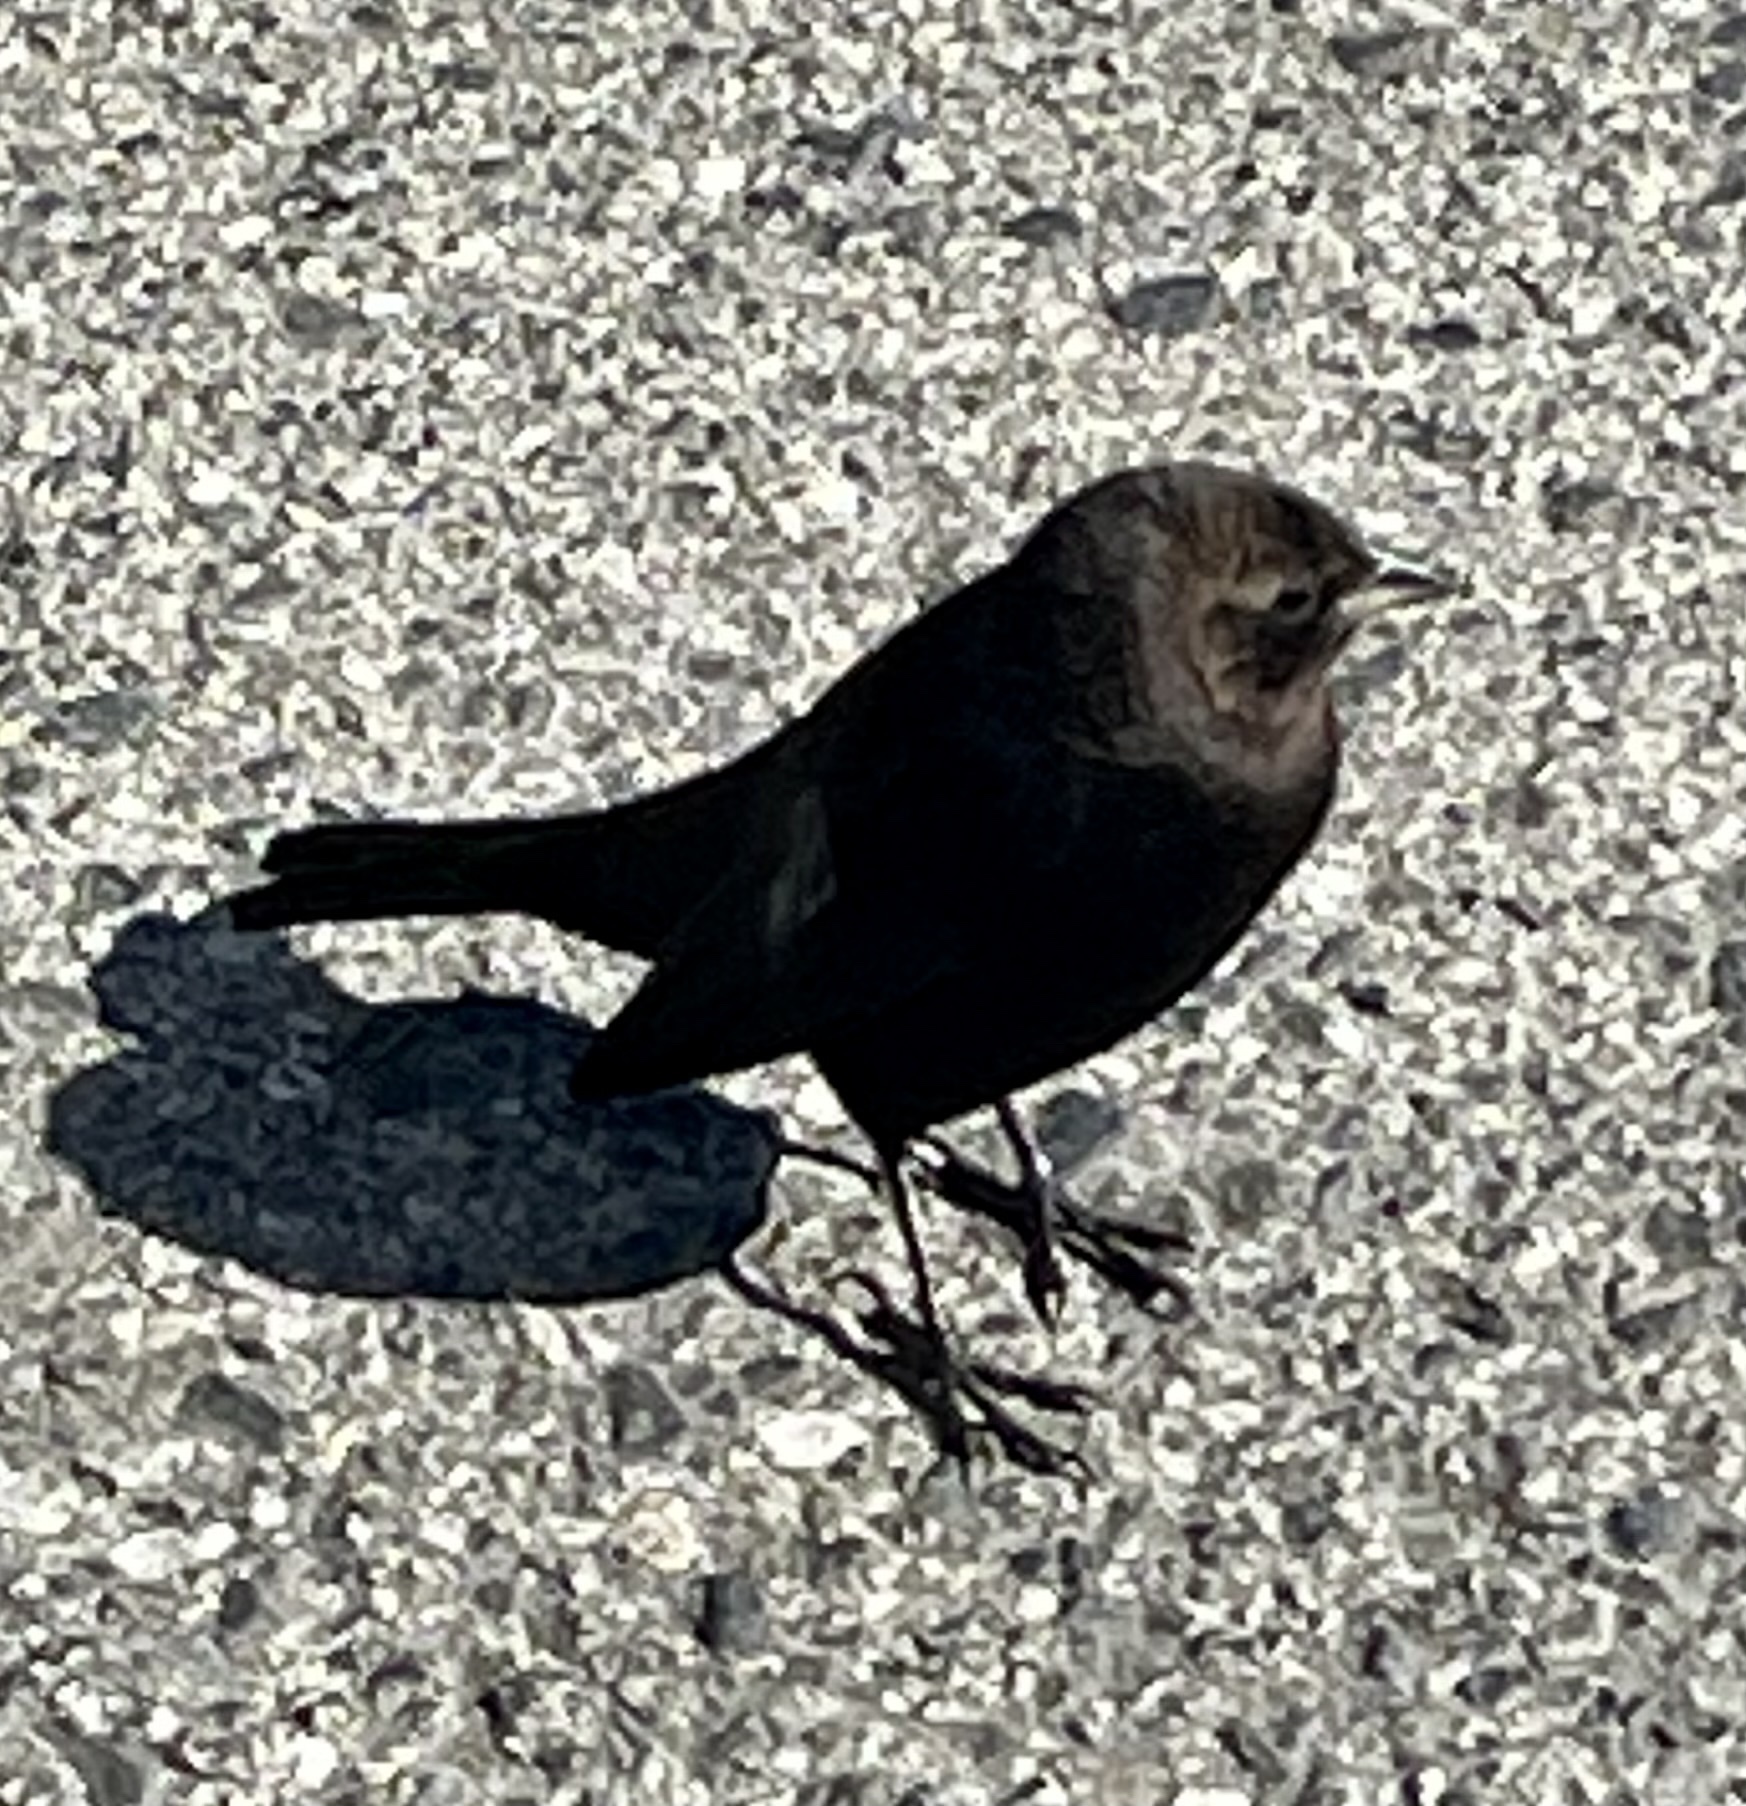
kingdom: Animalia
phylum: Chordata
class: Aves
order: Passeriformes
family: Icteridae
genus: Molothrus
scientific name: Molothrus ater
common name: Brown-headed cowbird
